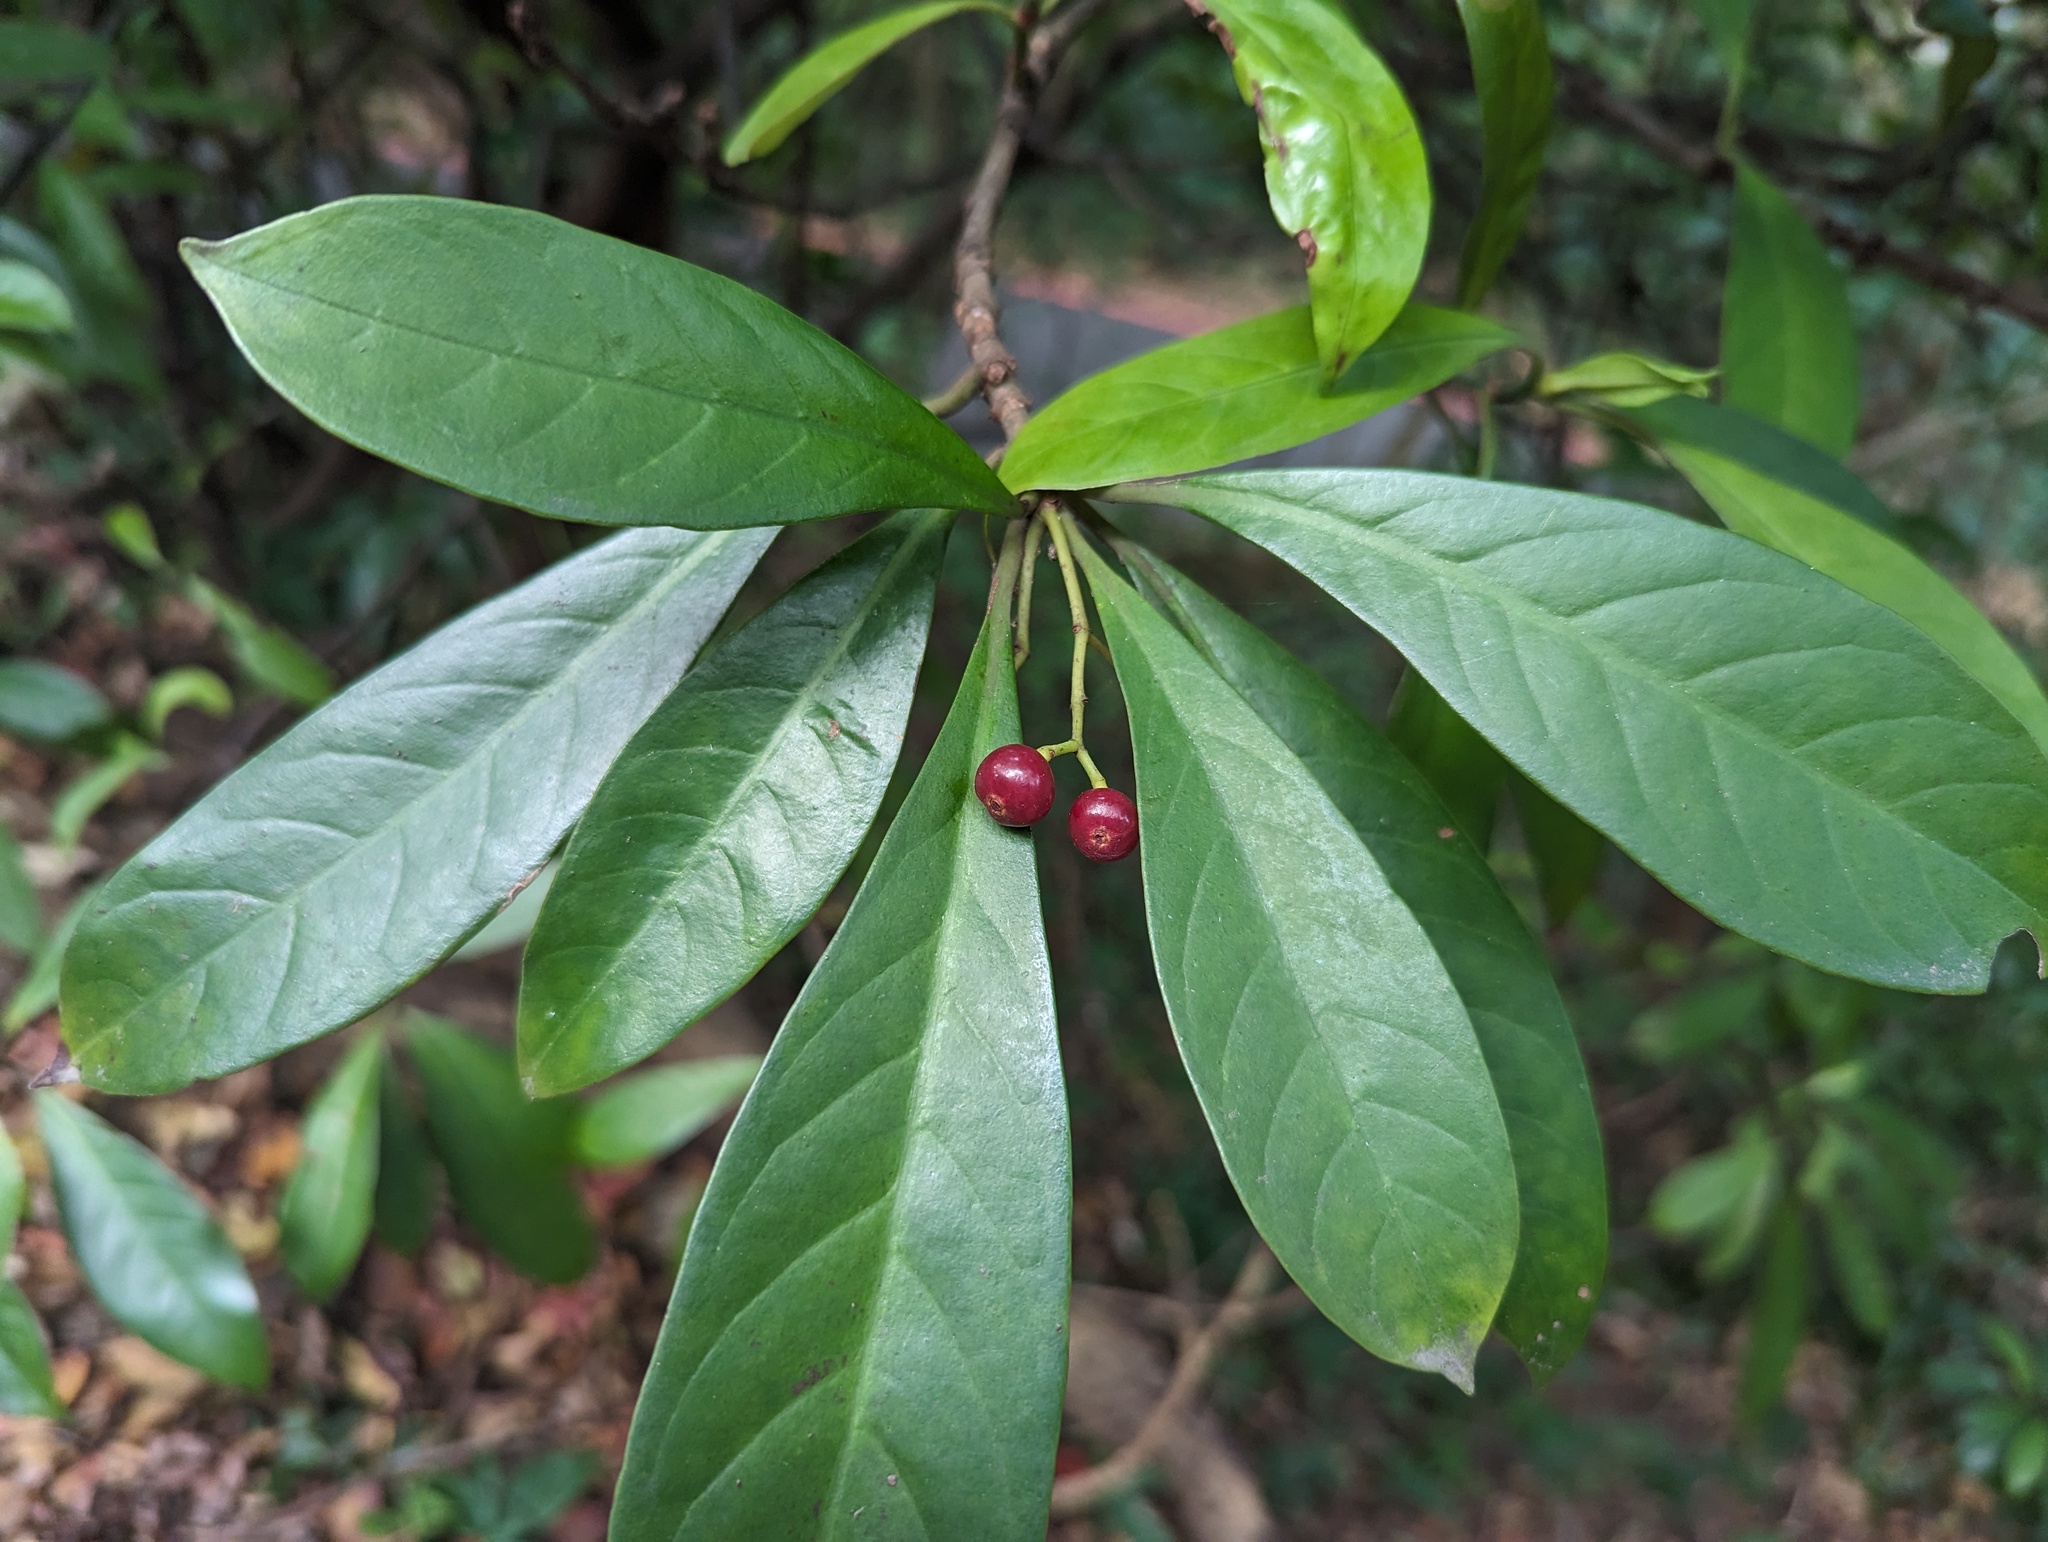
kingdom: Plantae
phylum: Tracheophyta
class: Magnoliopsida
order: Gentianales
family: Rubiaceae
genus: Psychotria
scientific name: Psychotria asiatica
